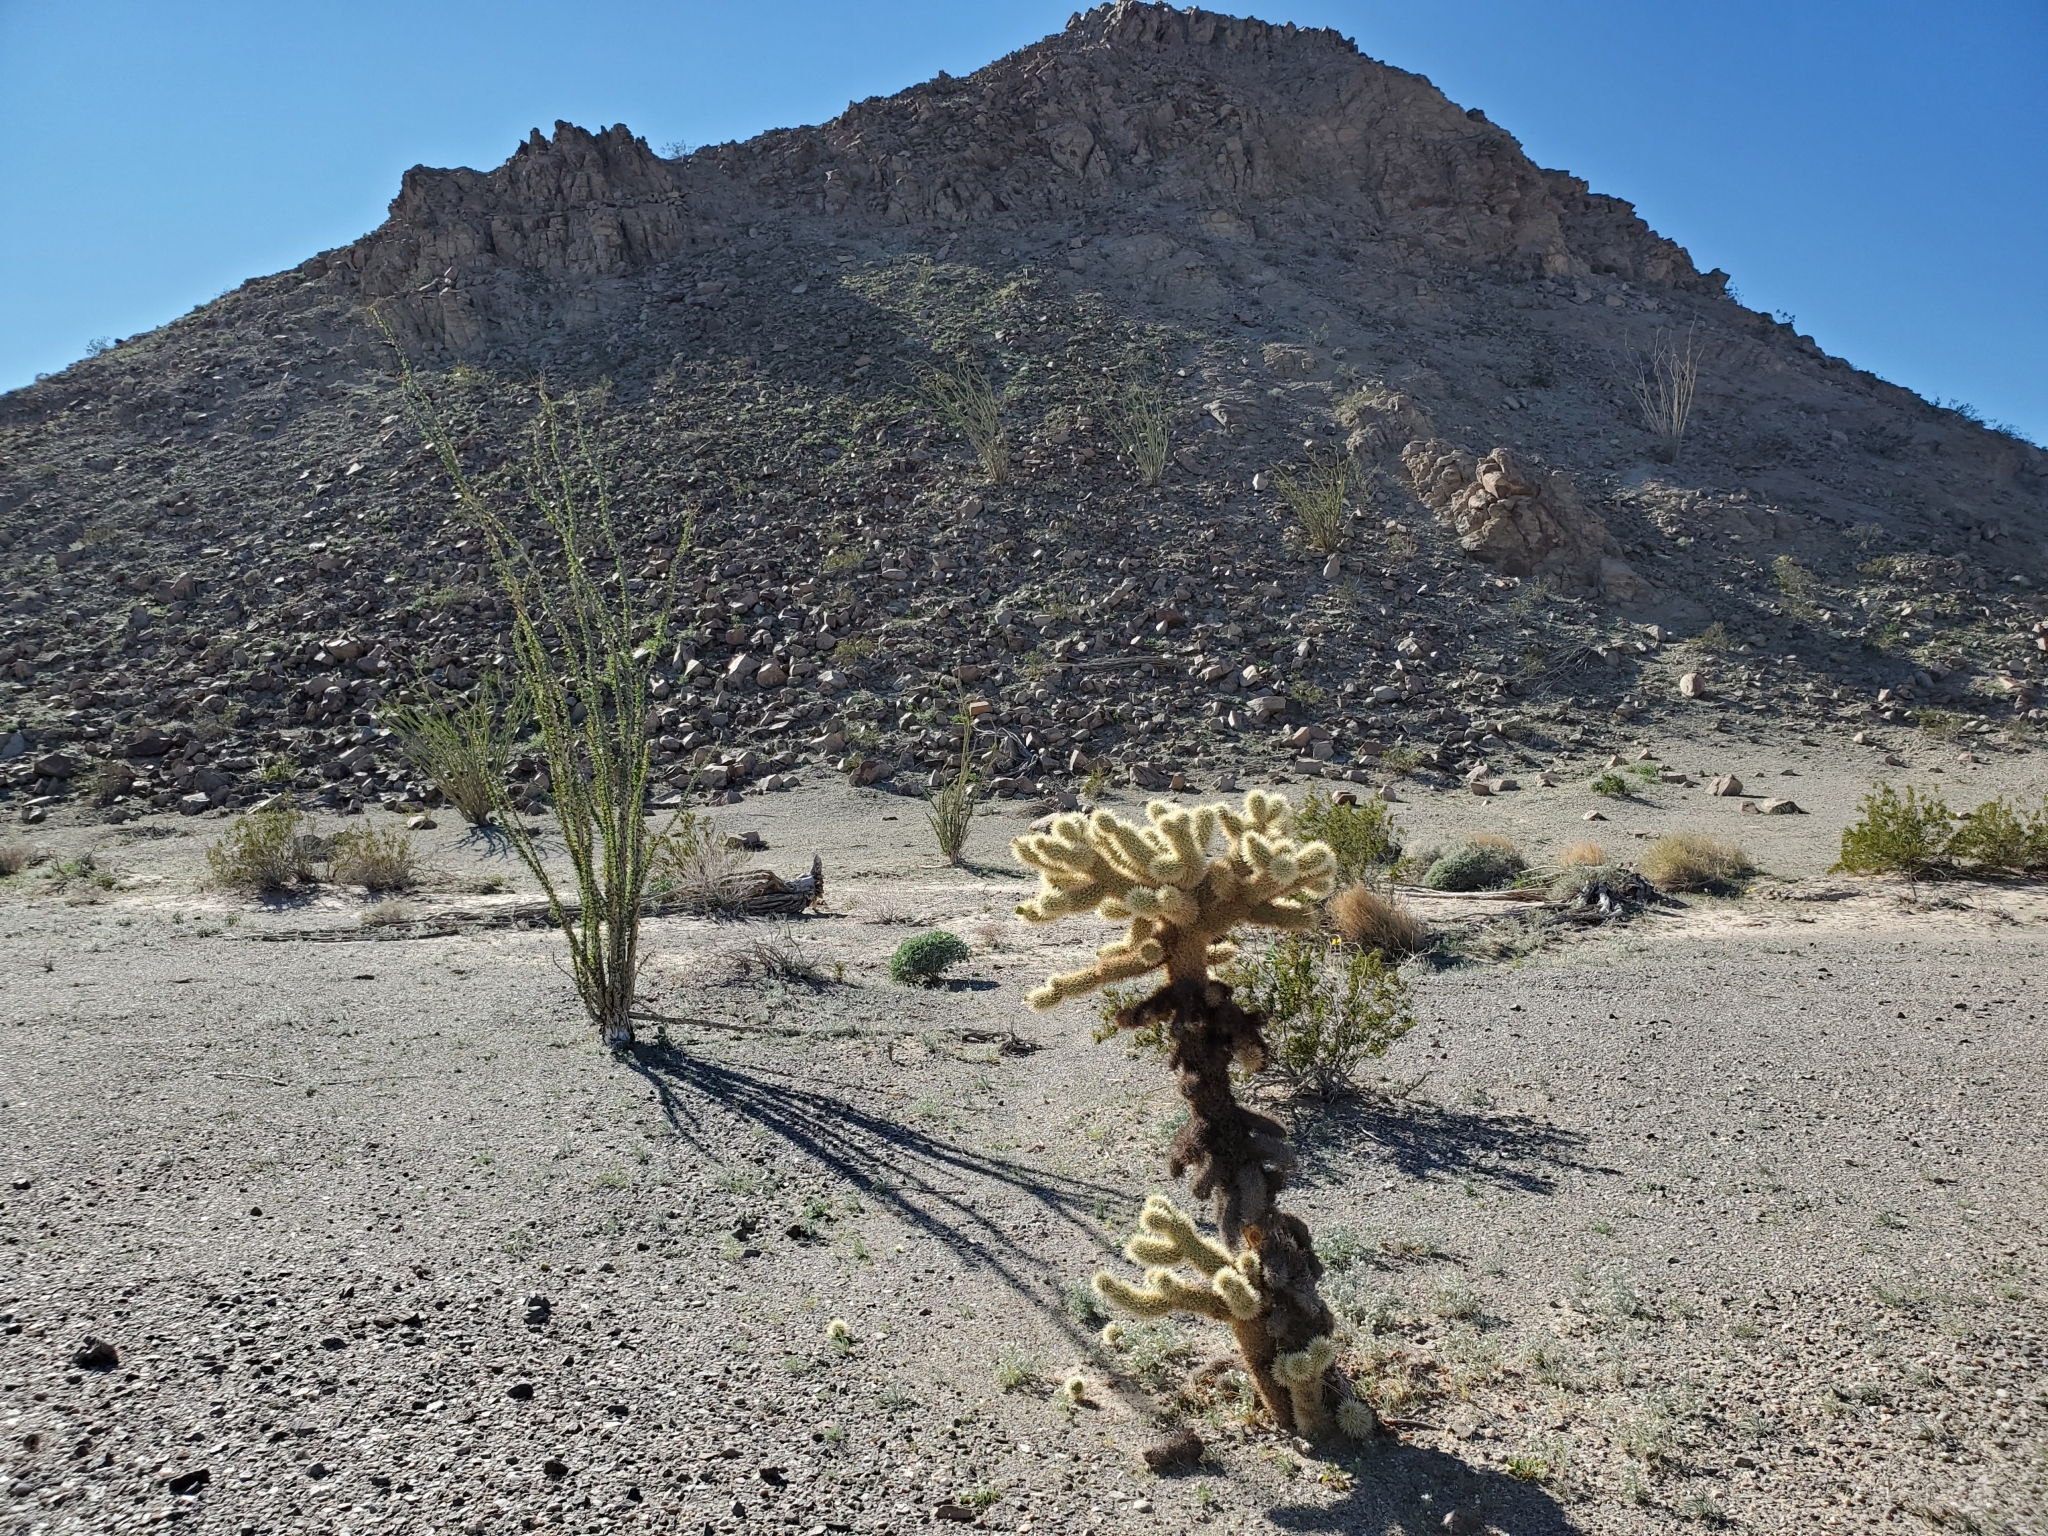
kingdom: Plantae
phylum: Tracheophyta
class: Magnoliopsida
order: Caryophyllales
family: Cactaceae
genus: Cylindropuntia
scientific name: Cylindropuntia fosbergii
